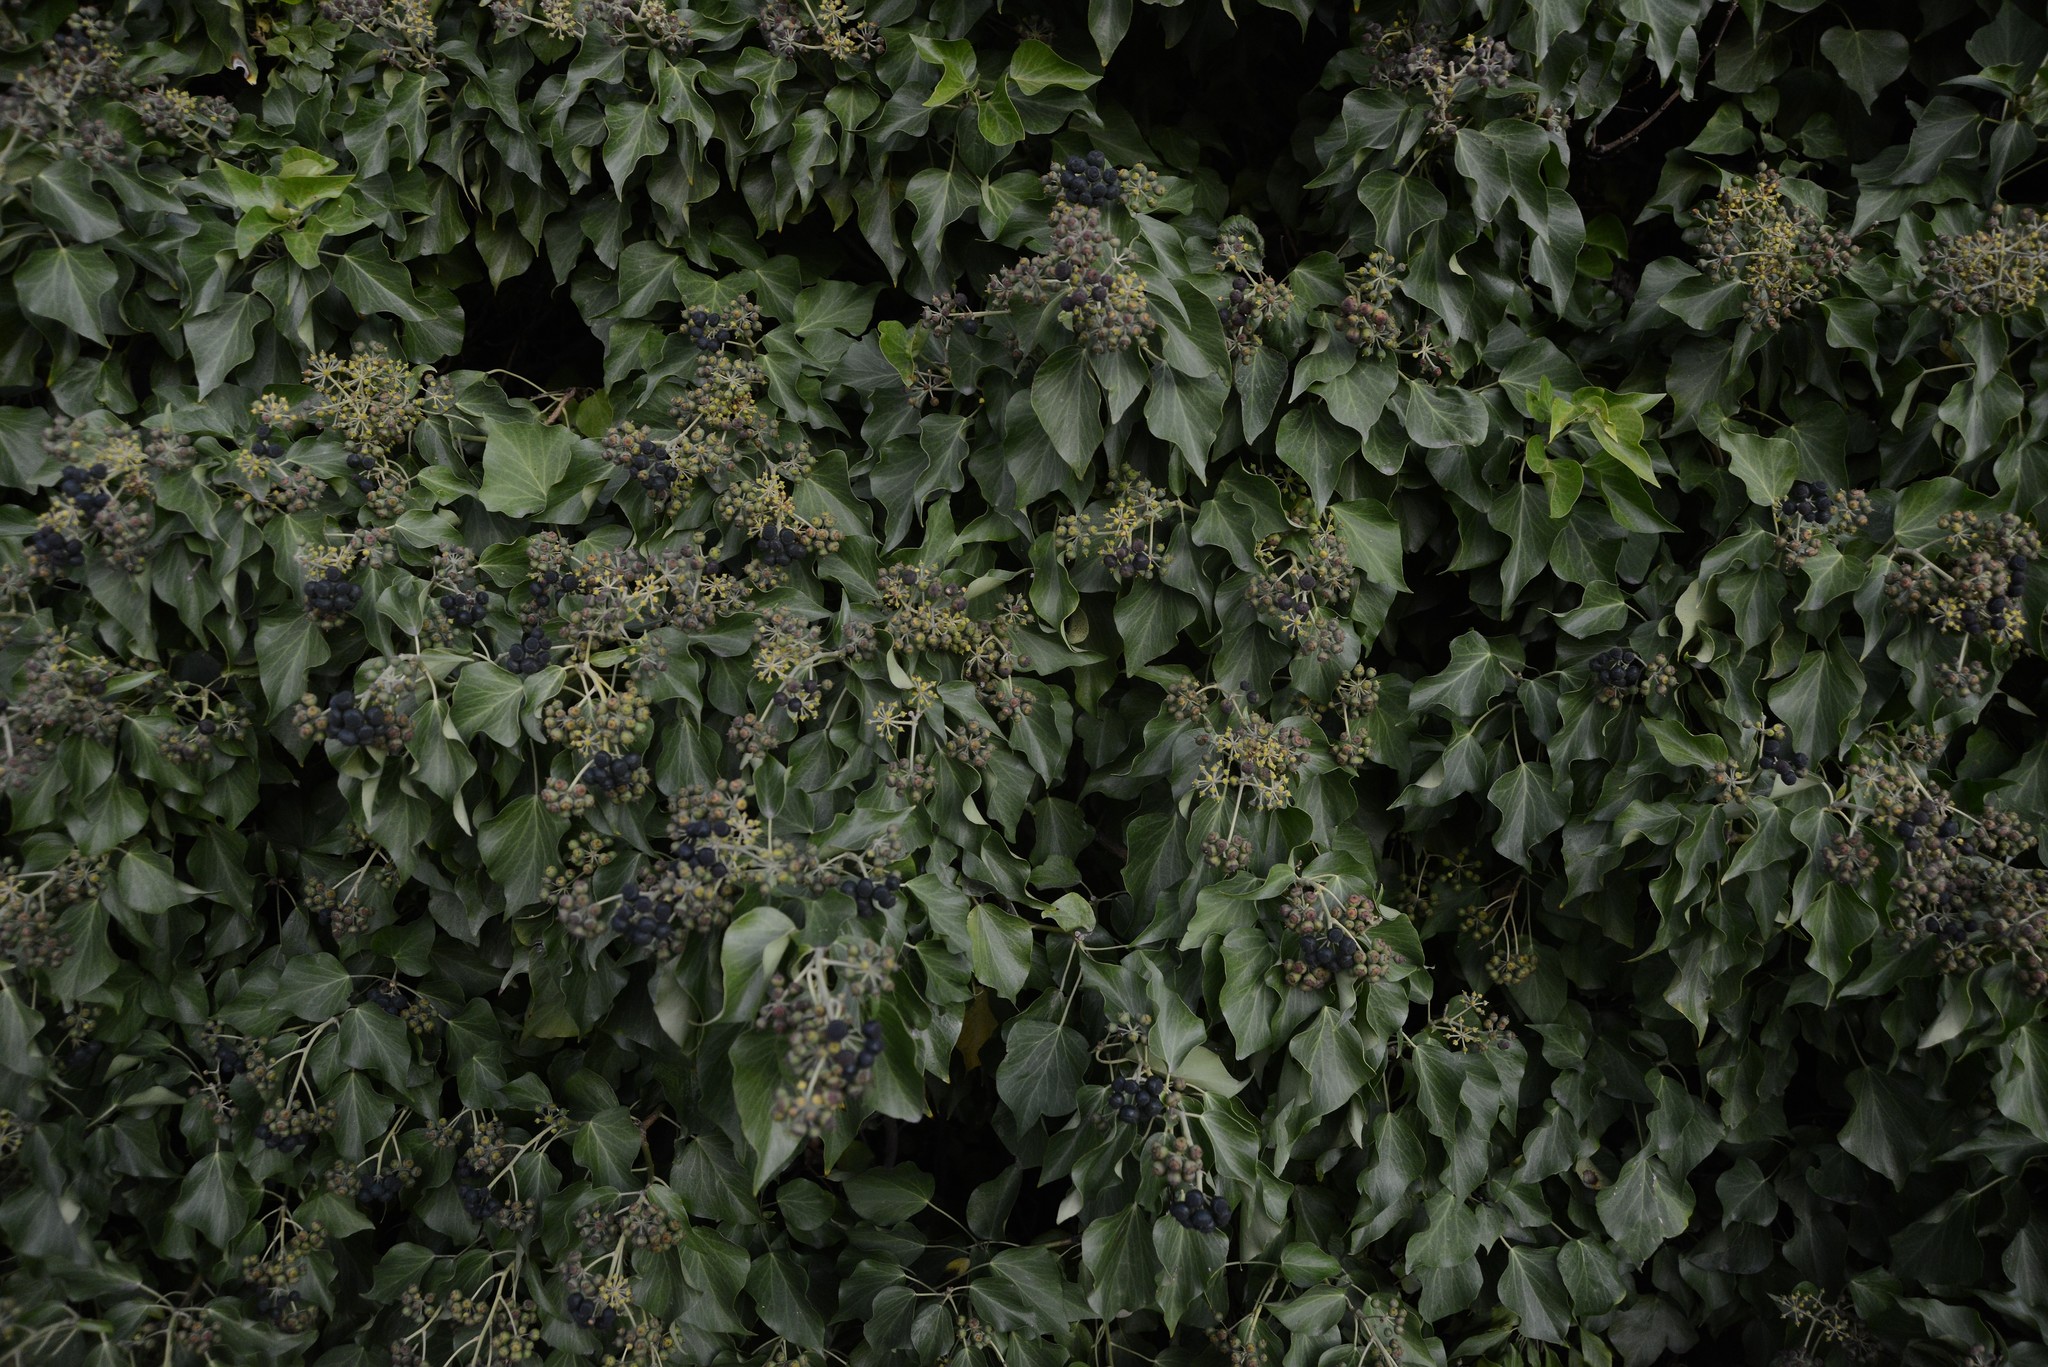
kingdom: Plantae
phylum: Tracheophyta
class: Magnoliopsida
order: Apiales
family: Araliaceae
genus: Hedera
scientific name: Hedera helix
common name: Ivy
